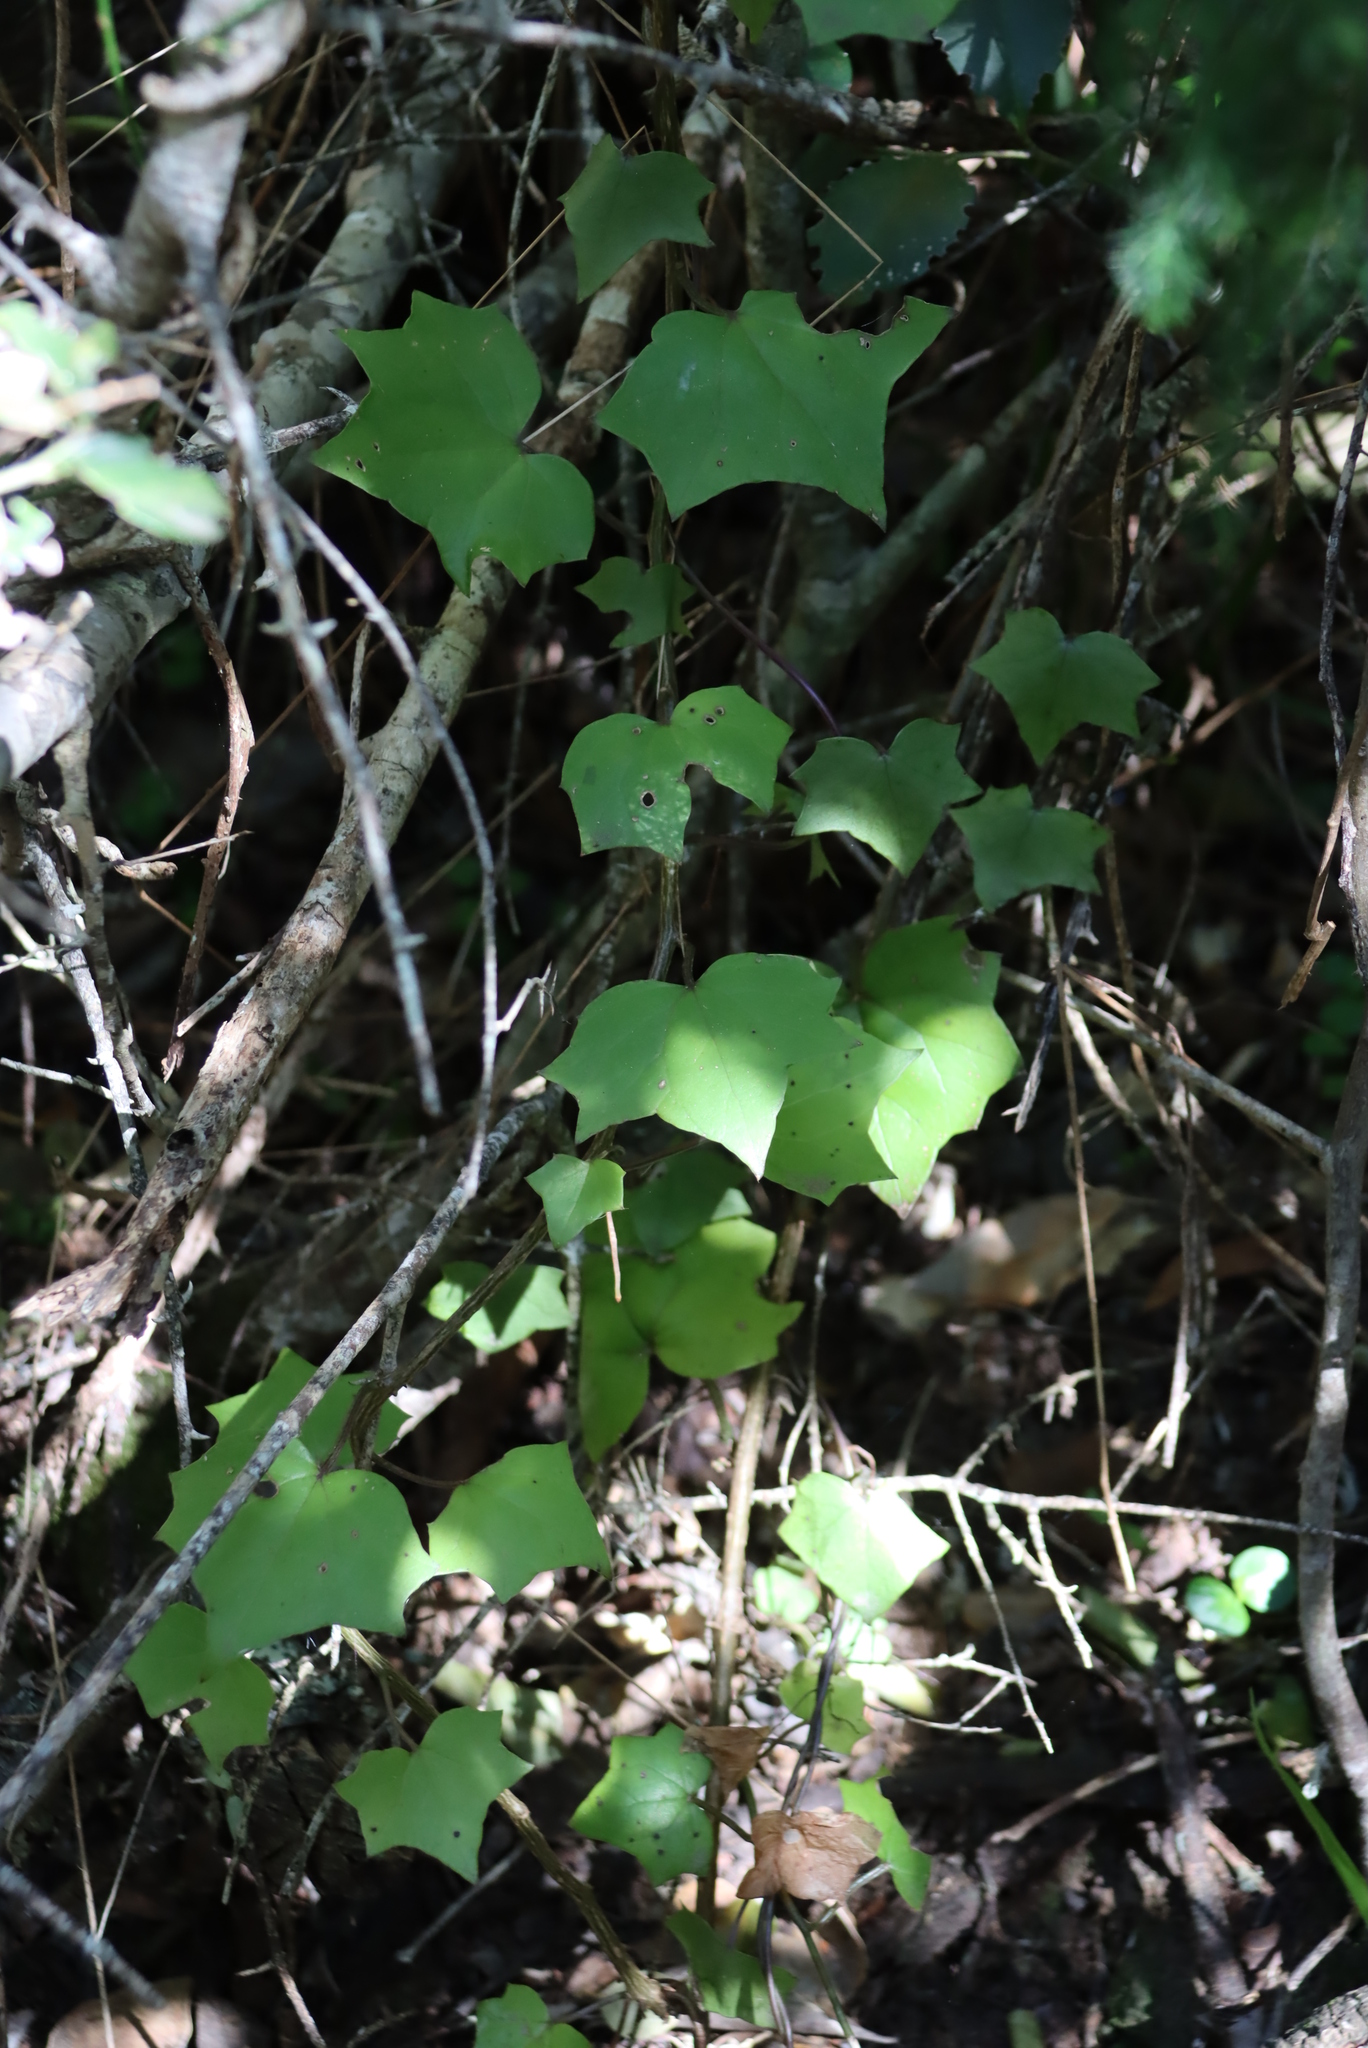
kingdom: Plantae
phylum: Tracheophyta
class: Magnoliopsida
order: Asterales
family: Asteraceae
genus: Delairea
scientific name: Delairea odorata
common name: Cape-ivy
